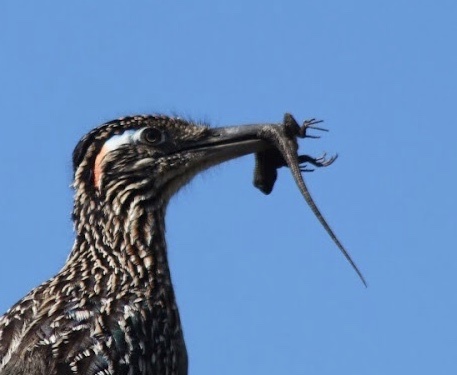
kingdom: Animalia
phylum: Chordata
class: Squamata
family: Phrynosomatidae
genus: Sceloporus
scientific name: Sceloporus occidentalis
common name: Western fence lizard
